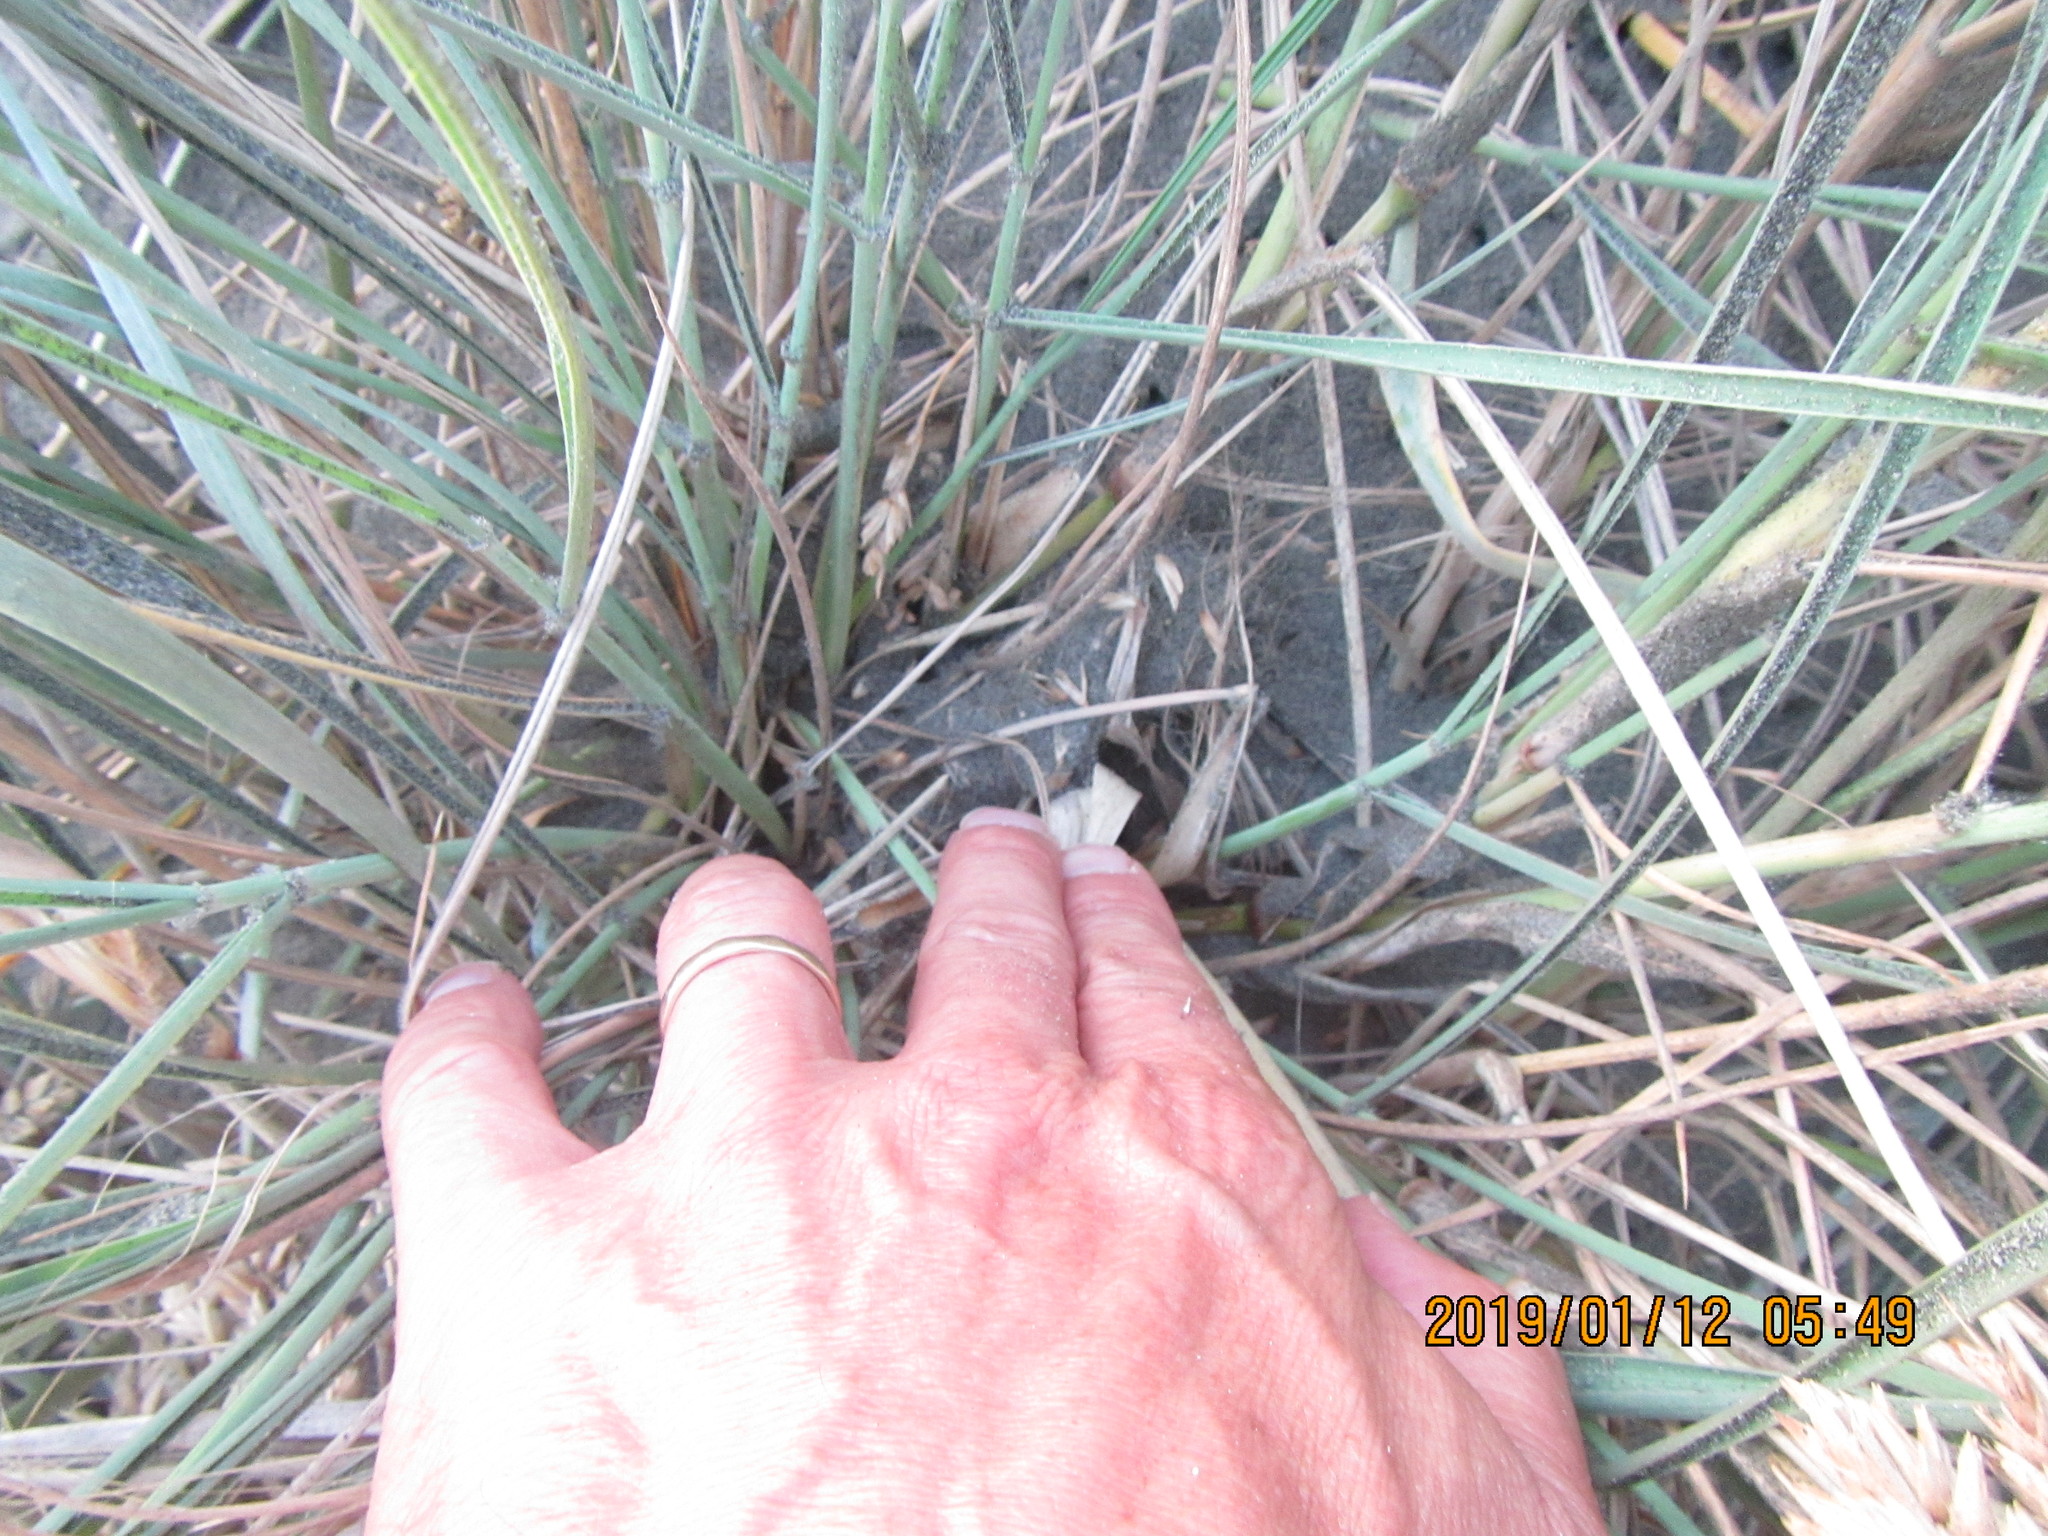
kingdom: Animalia
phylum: Arthropoda
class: Arachnida
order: Araneae
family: Theridiidae
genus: Latrodectus
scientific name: Latrodectus katipo
